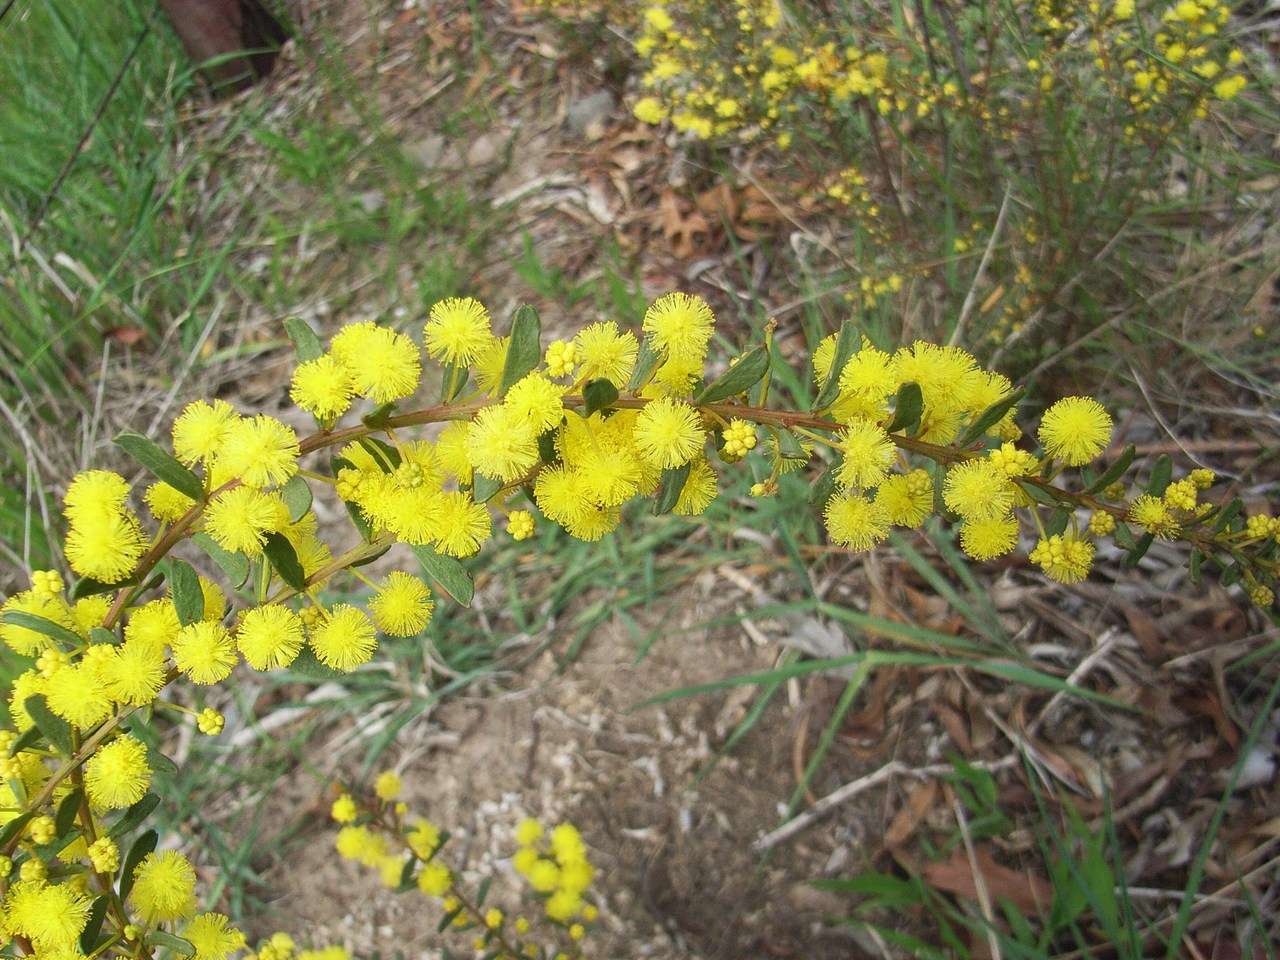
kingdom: Plantae
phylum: Tracheophyta
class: Magnoliopsida
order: Fabales
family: Fabaceae
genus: Acacia
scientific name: Acacia acinacea
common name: Gold-dust acacia
